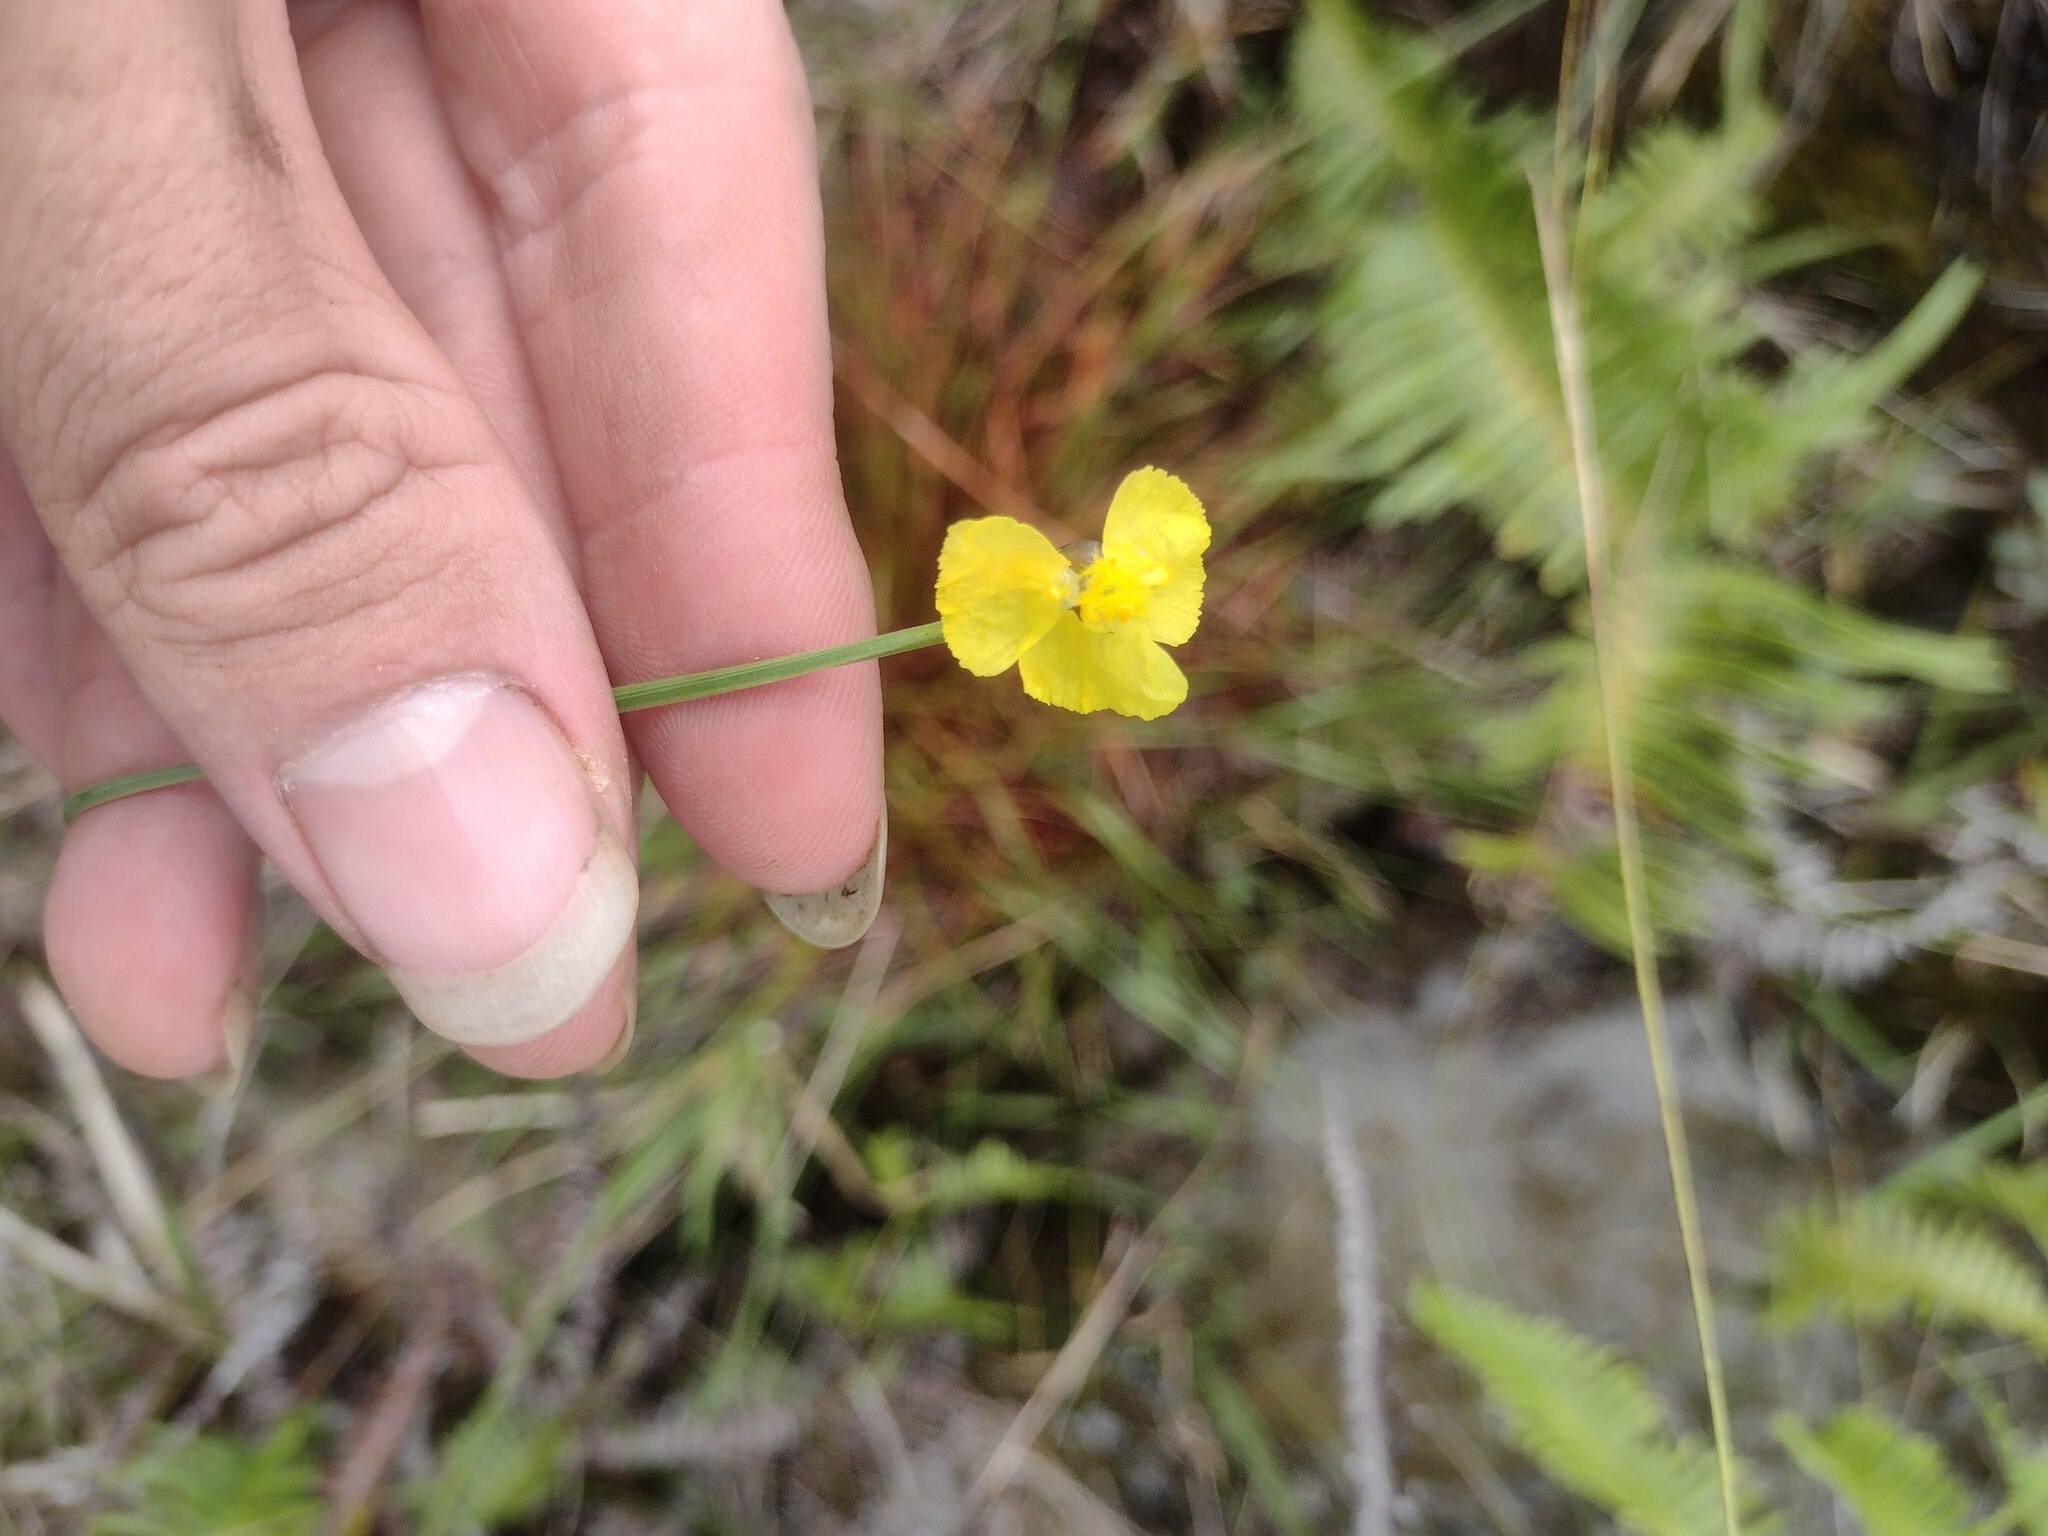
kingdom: Plantae
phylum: Tracheophyta
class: Liliopsida
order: Poales
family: Xyridaceae
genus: Xyris
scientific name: Xyris complanata
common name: Hawai'i yelloweyed grass
